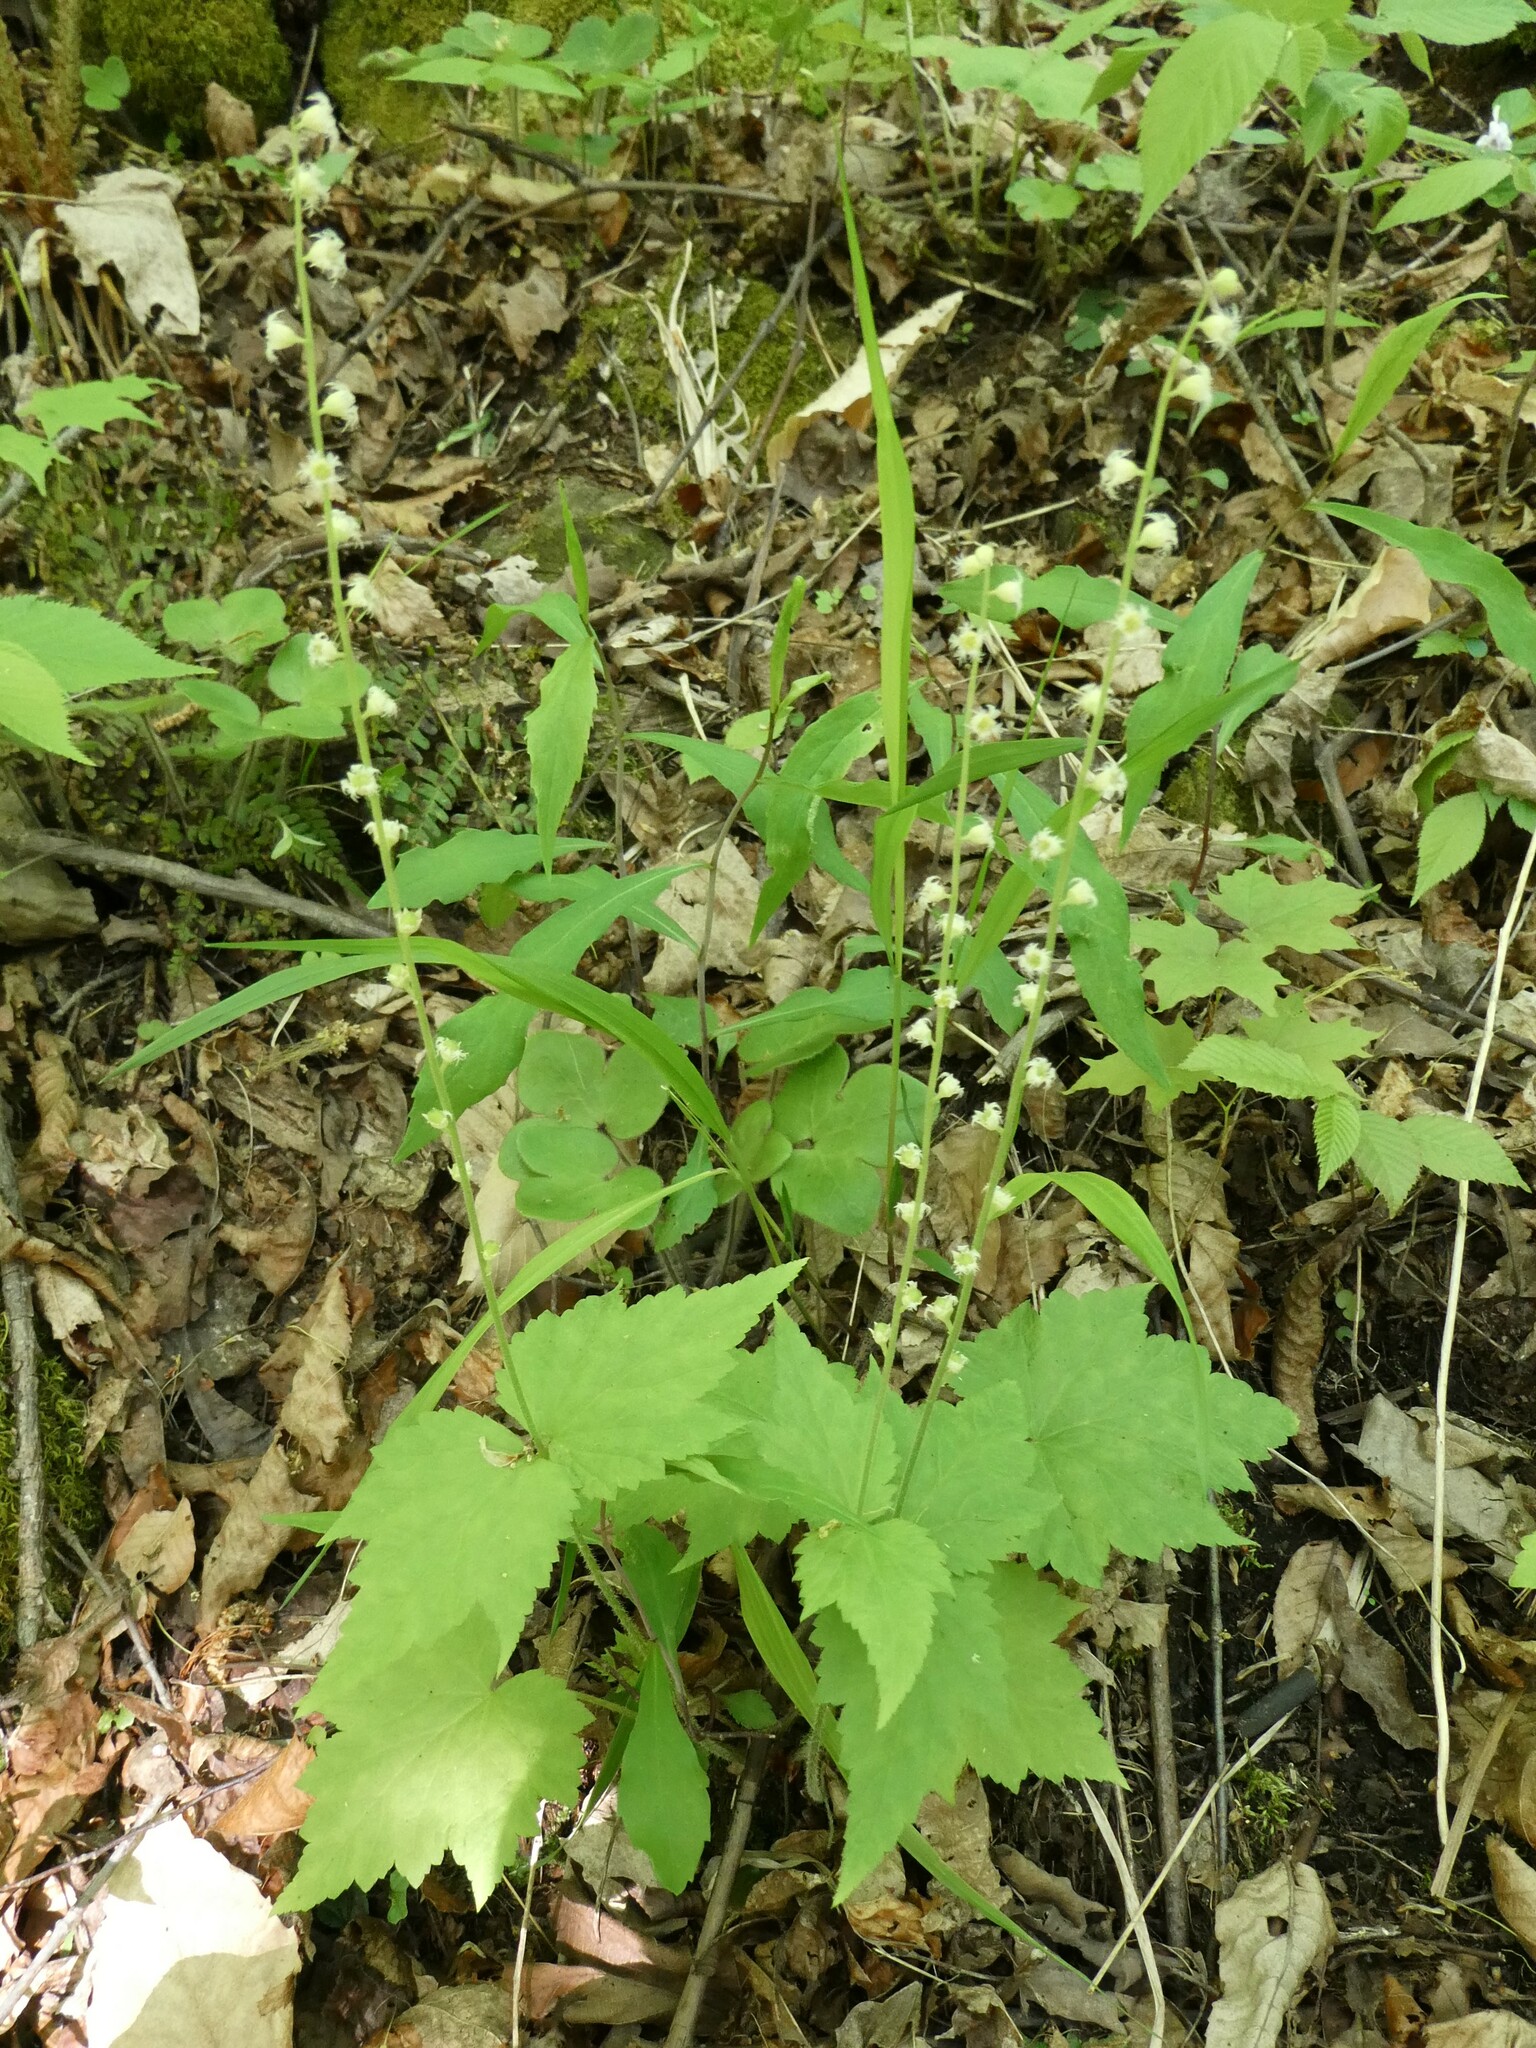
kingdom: Plantae
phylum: Tracheophyta
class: Magnoliopsida
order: Saxifragales
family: Saxifragaceae
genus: Mitella
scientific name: Mitella diphylla
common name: Coolwort
